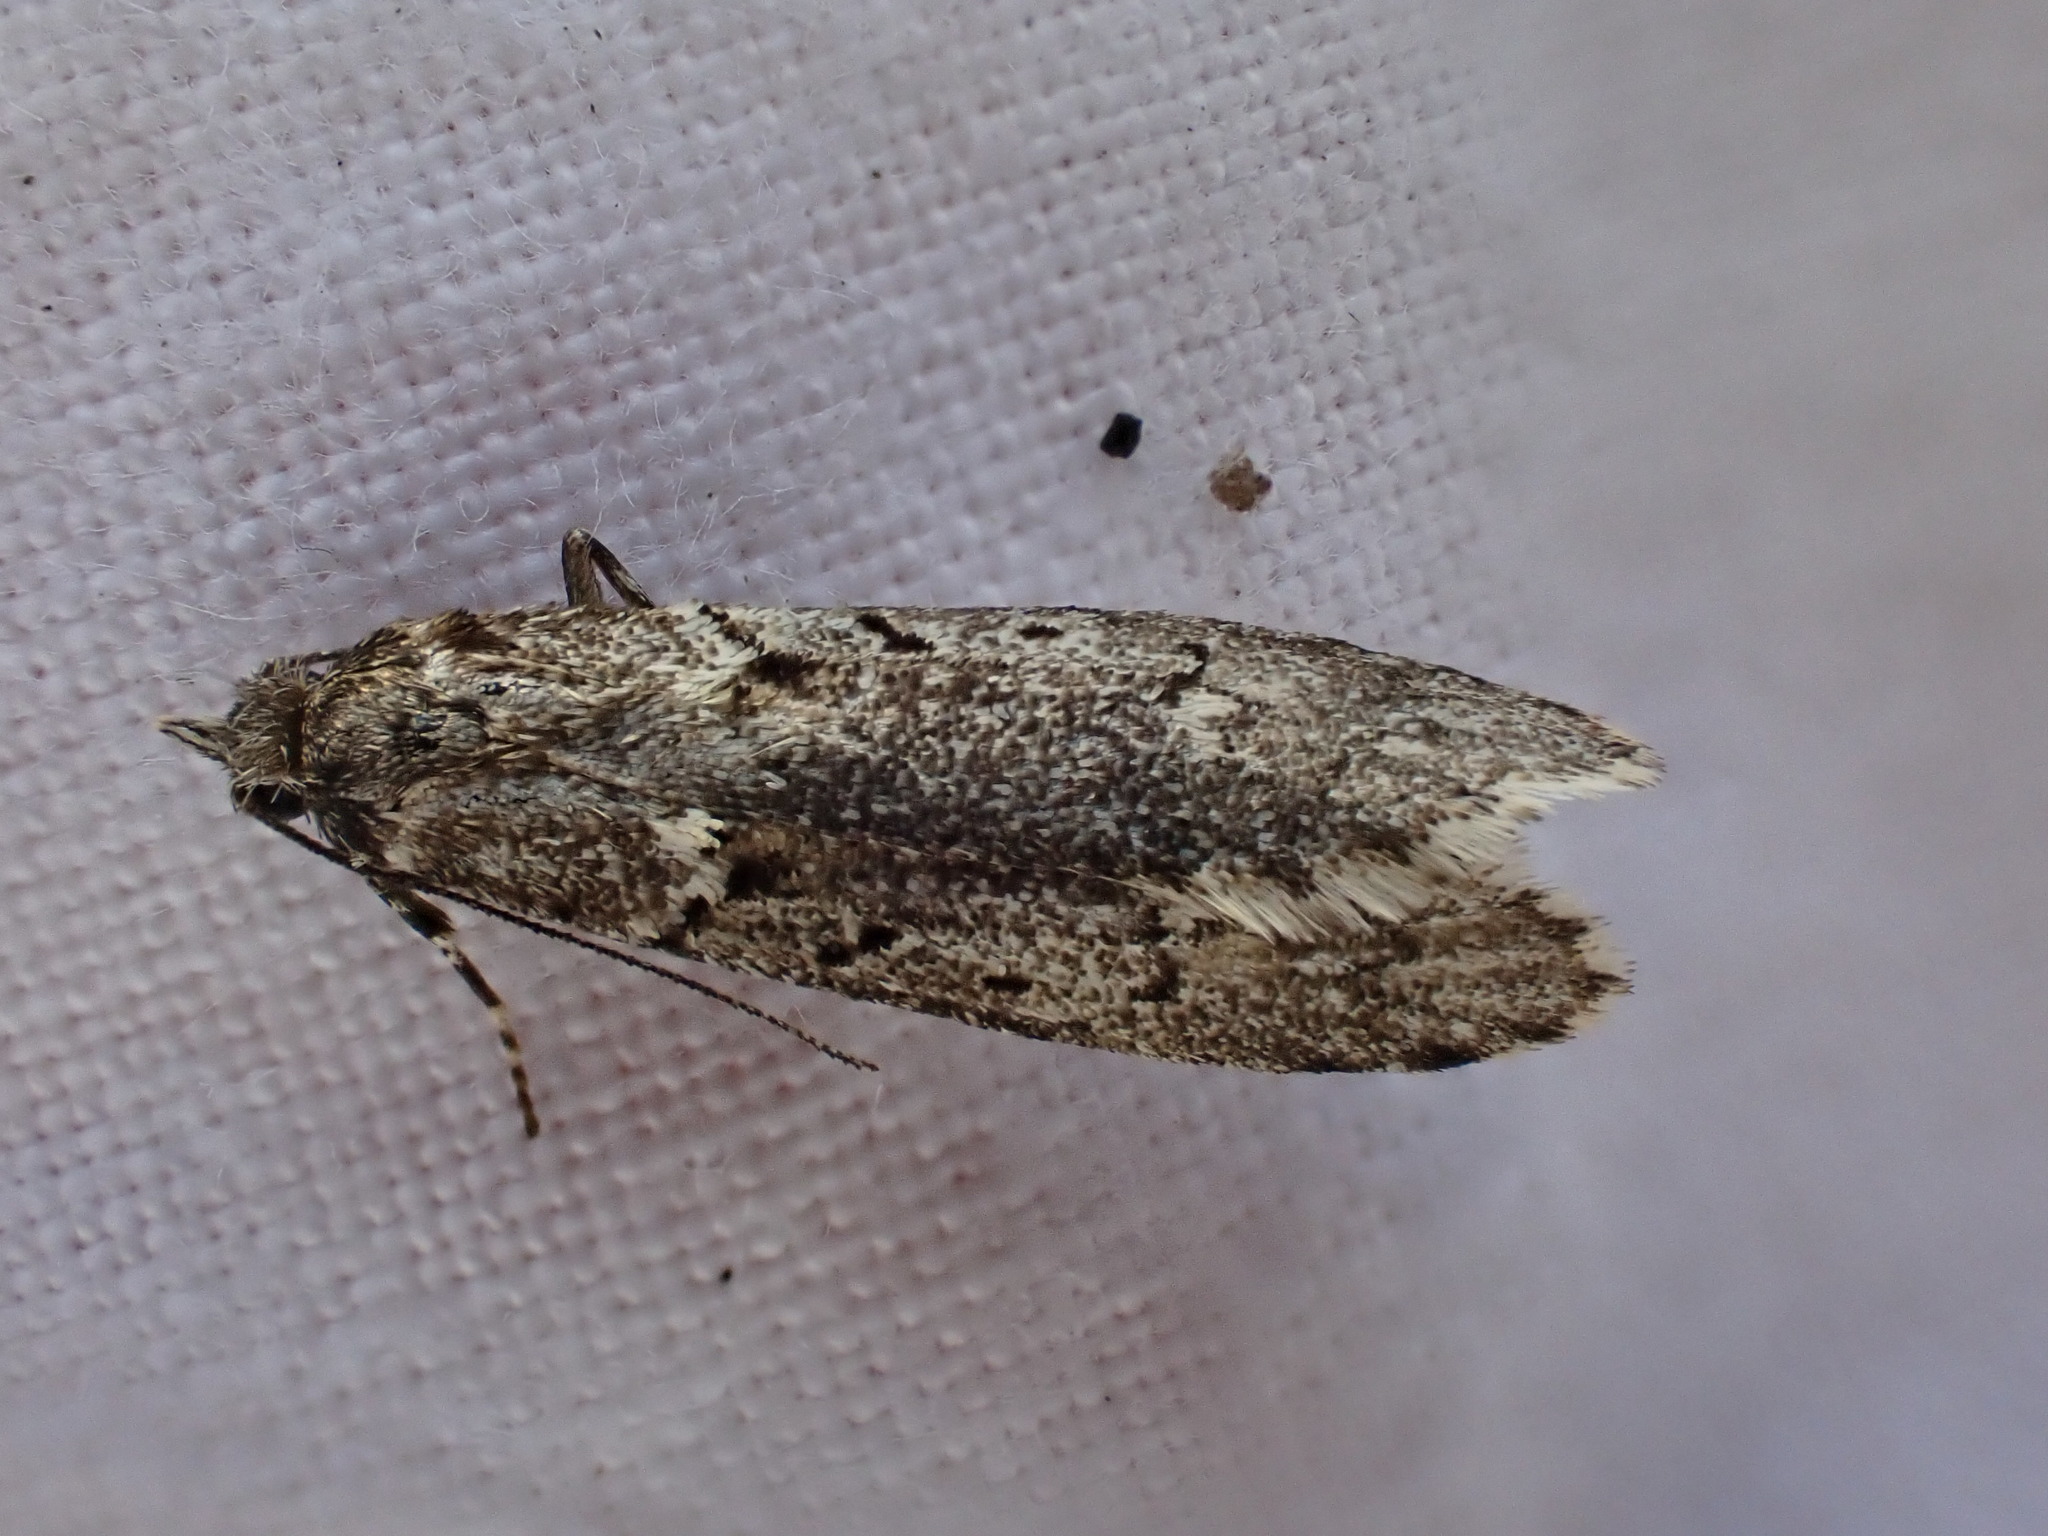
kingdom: Animalia
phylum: Arthropoda
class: Insecta
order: Lepidoptera
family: Lypusidae
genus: Diurnea
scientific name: Diurnea fagella
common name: March tubic
